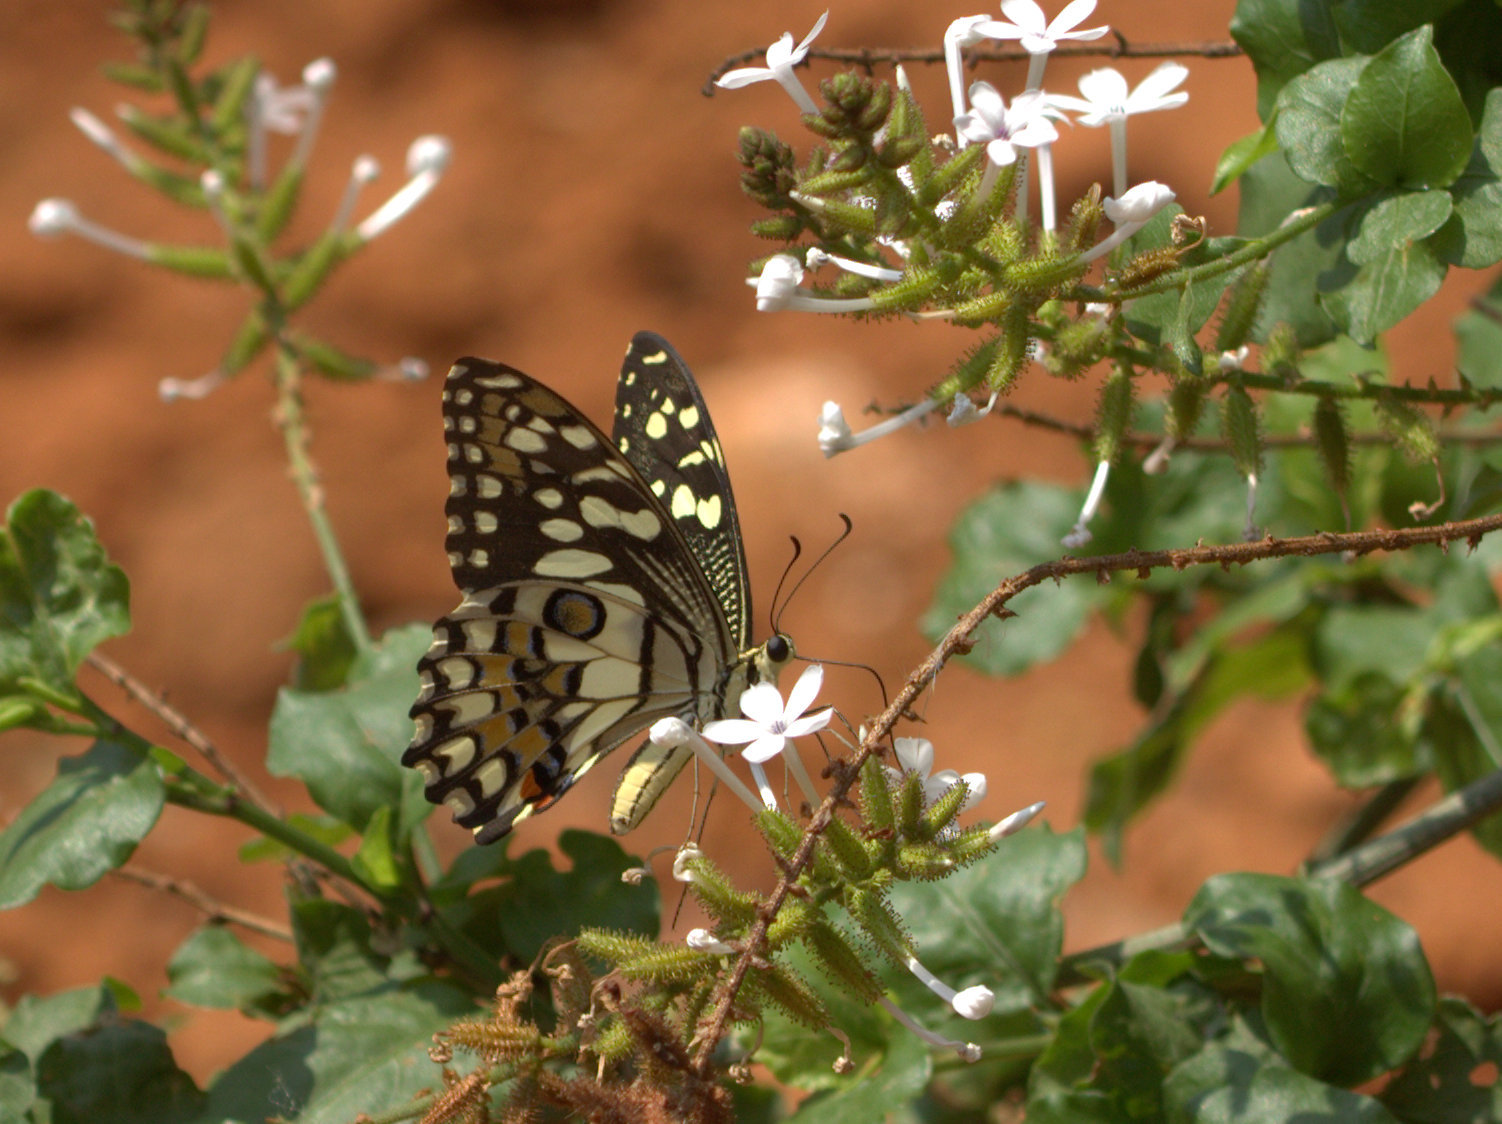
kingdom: Animalia
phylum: Arthropoda
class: Insecta
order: Lepidoptera
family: Papilionidae
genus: Papilio
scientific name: Papilio demoleus
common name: Lime butterfly
